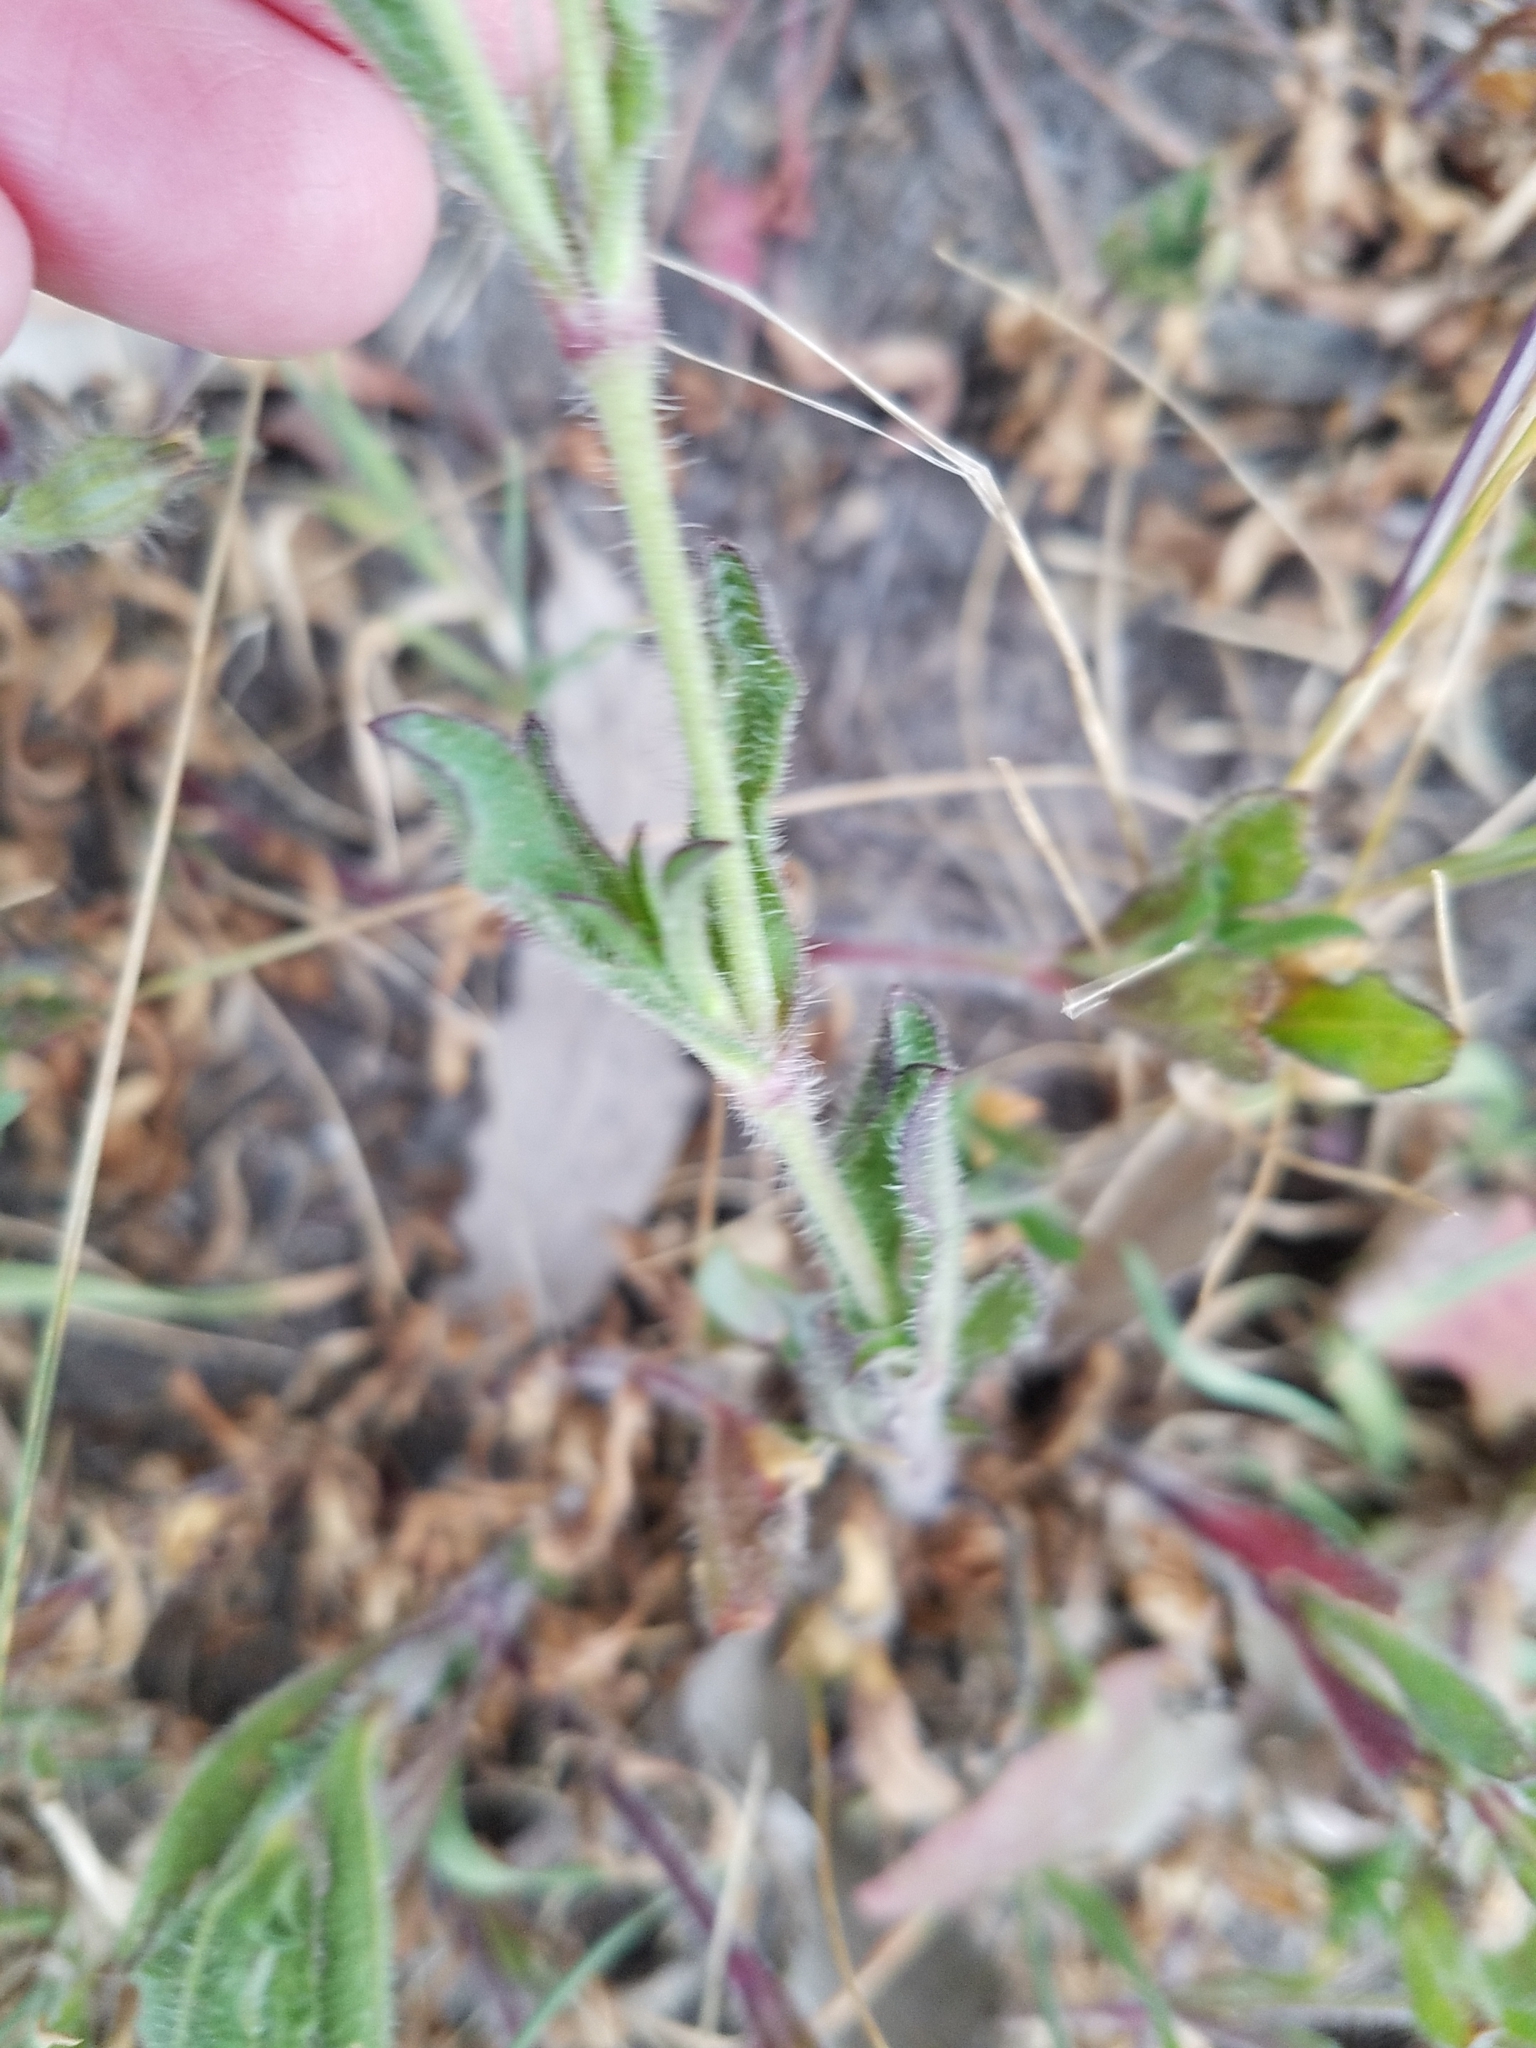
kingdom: Plantae
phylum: Tracheophyta
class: Magnoliopsida
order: Caryophyllales
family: Caryophyllaceae
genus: Silene
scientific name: Silene gallica
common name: Small-flowered catchfly
